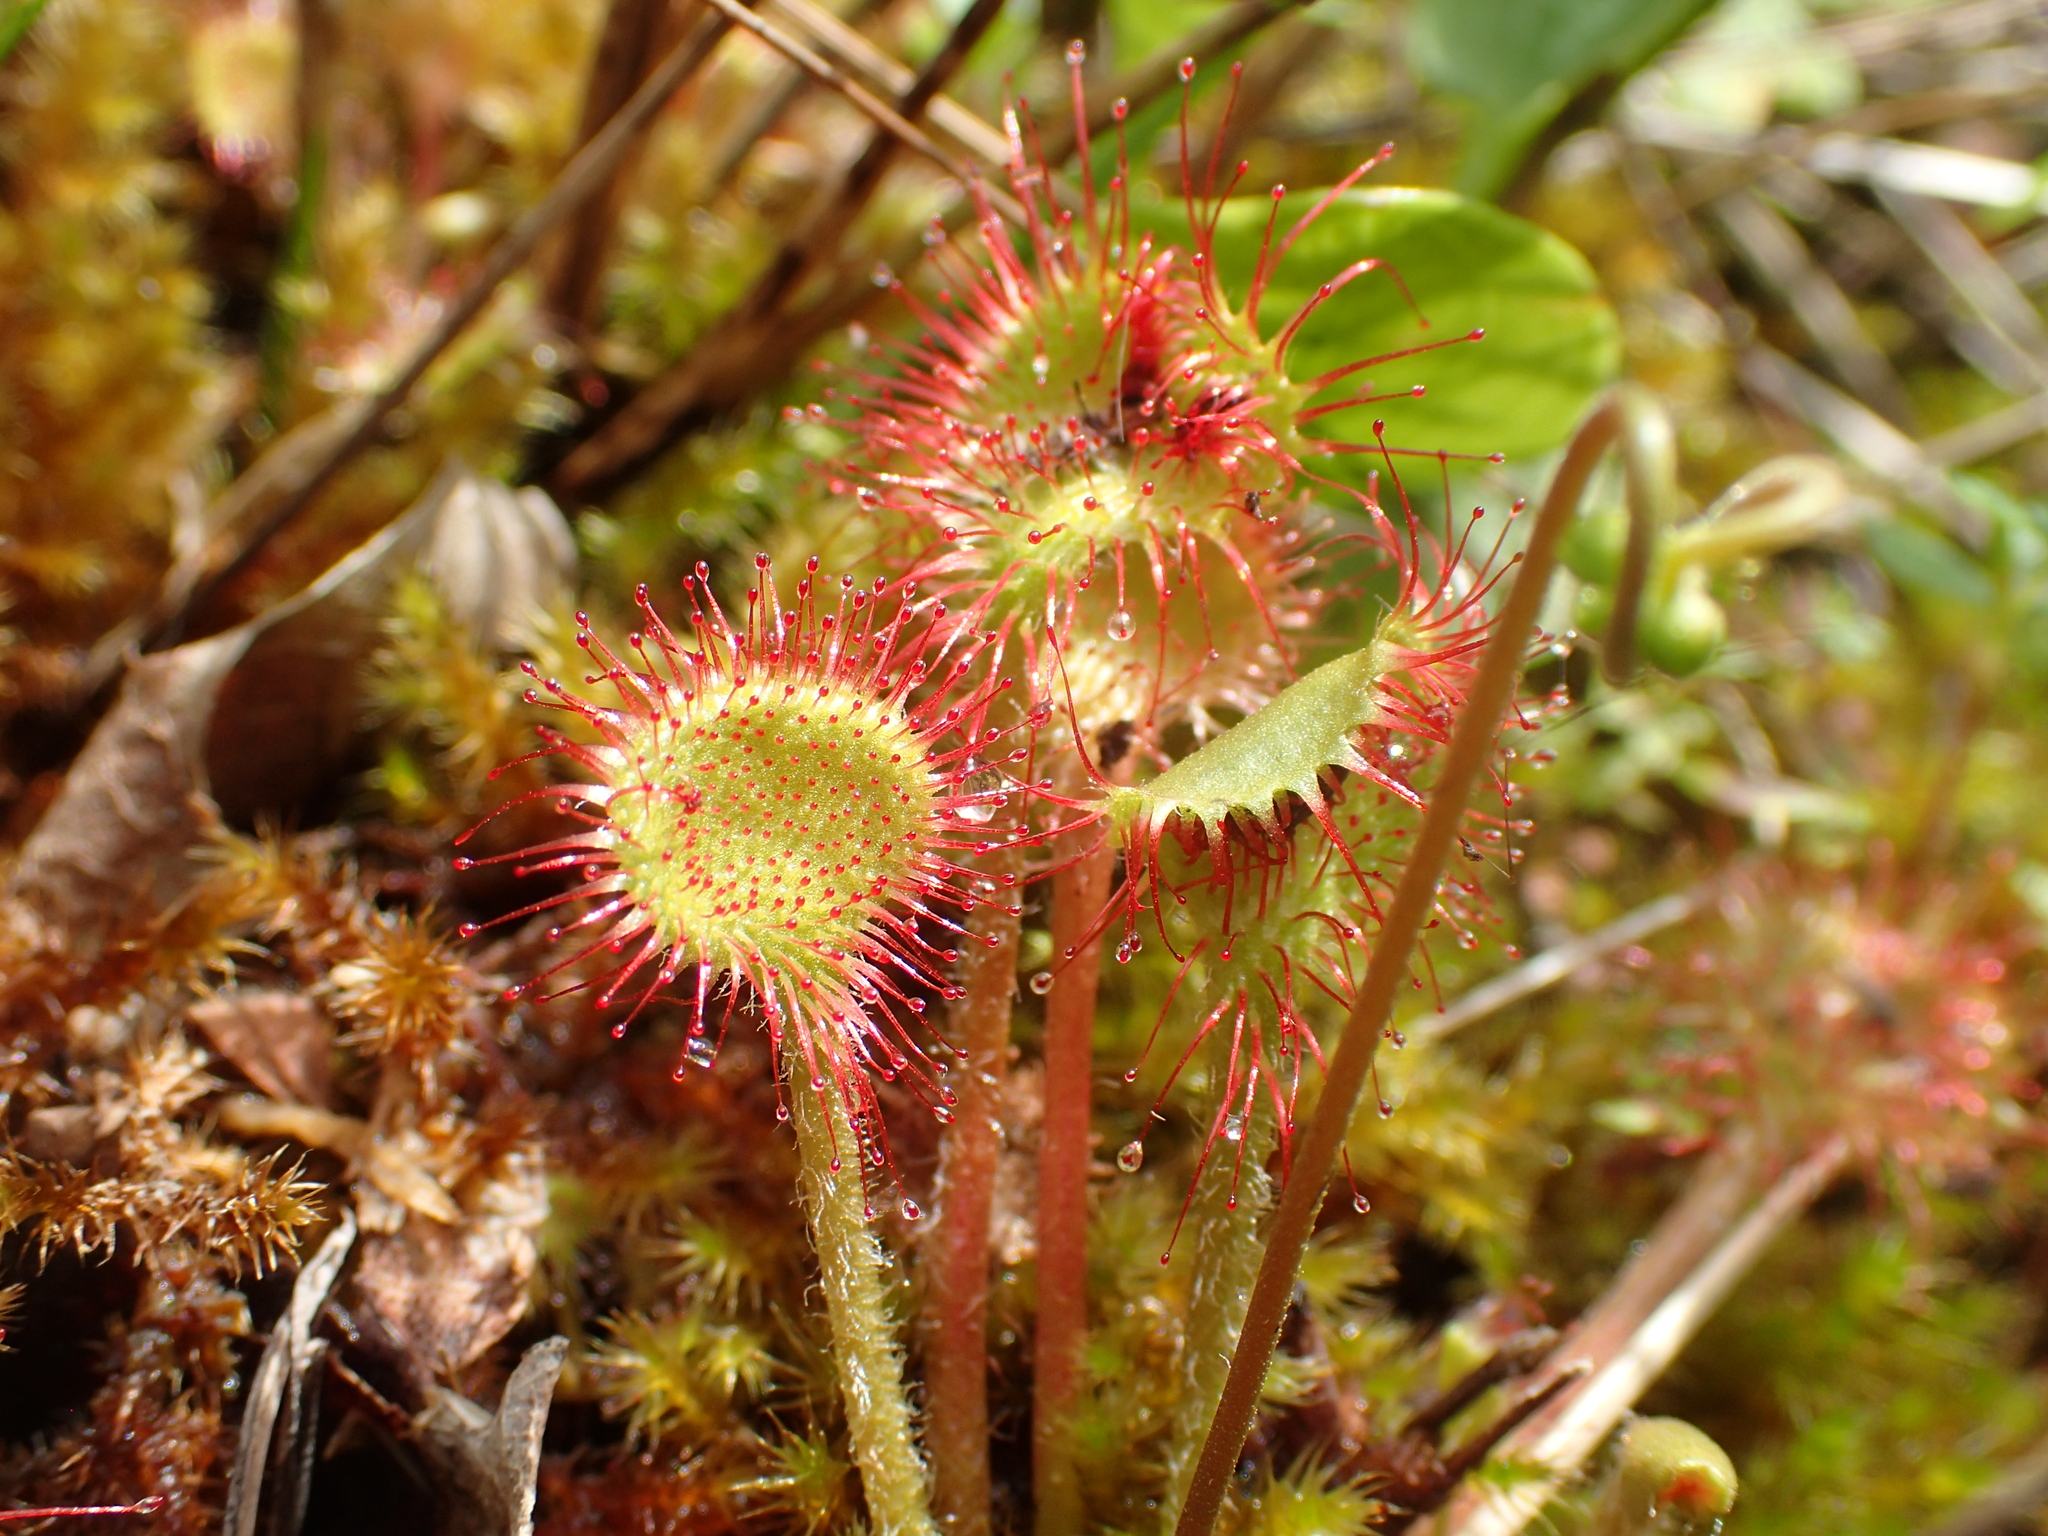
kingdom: Plantae
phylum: Tracheophyta
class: Magnoliopsida
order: Caryophyllales
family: Droseraceae
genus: Drosera
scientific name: Drosera rotundifolia
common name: Round-leaved sundew
